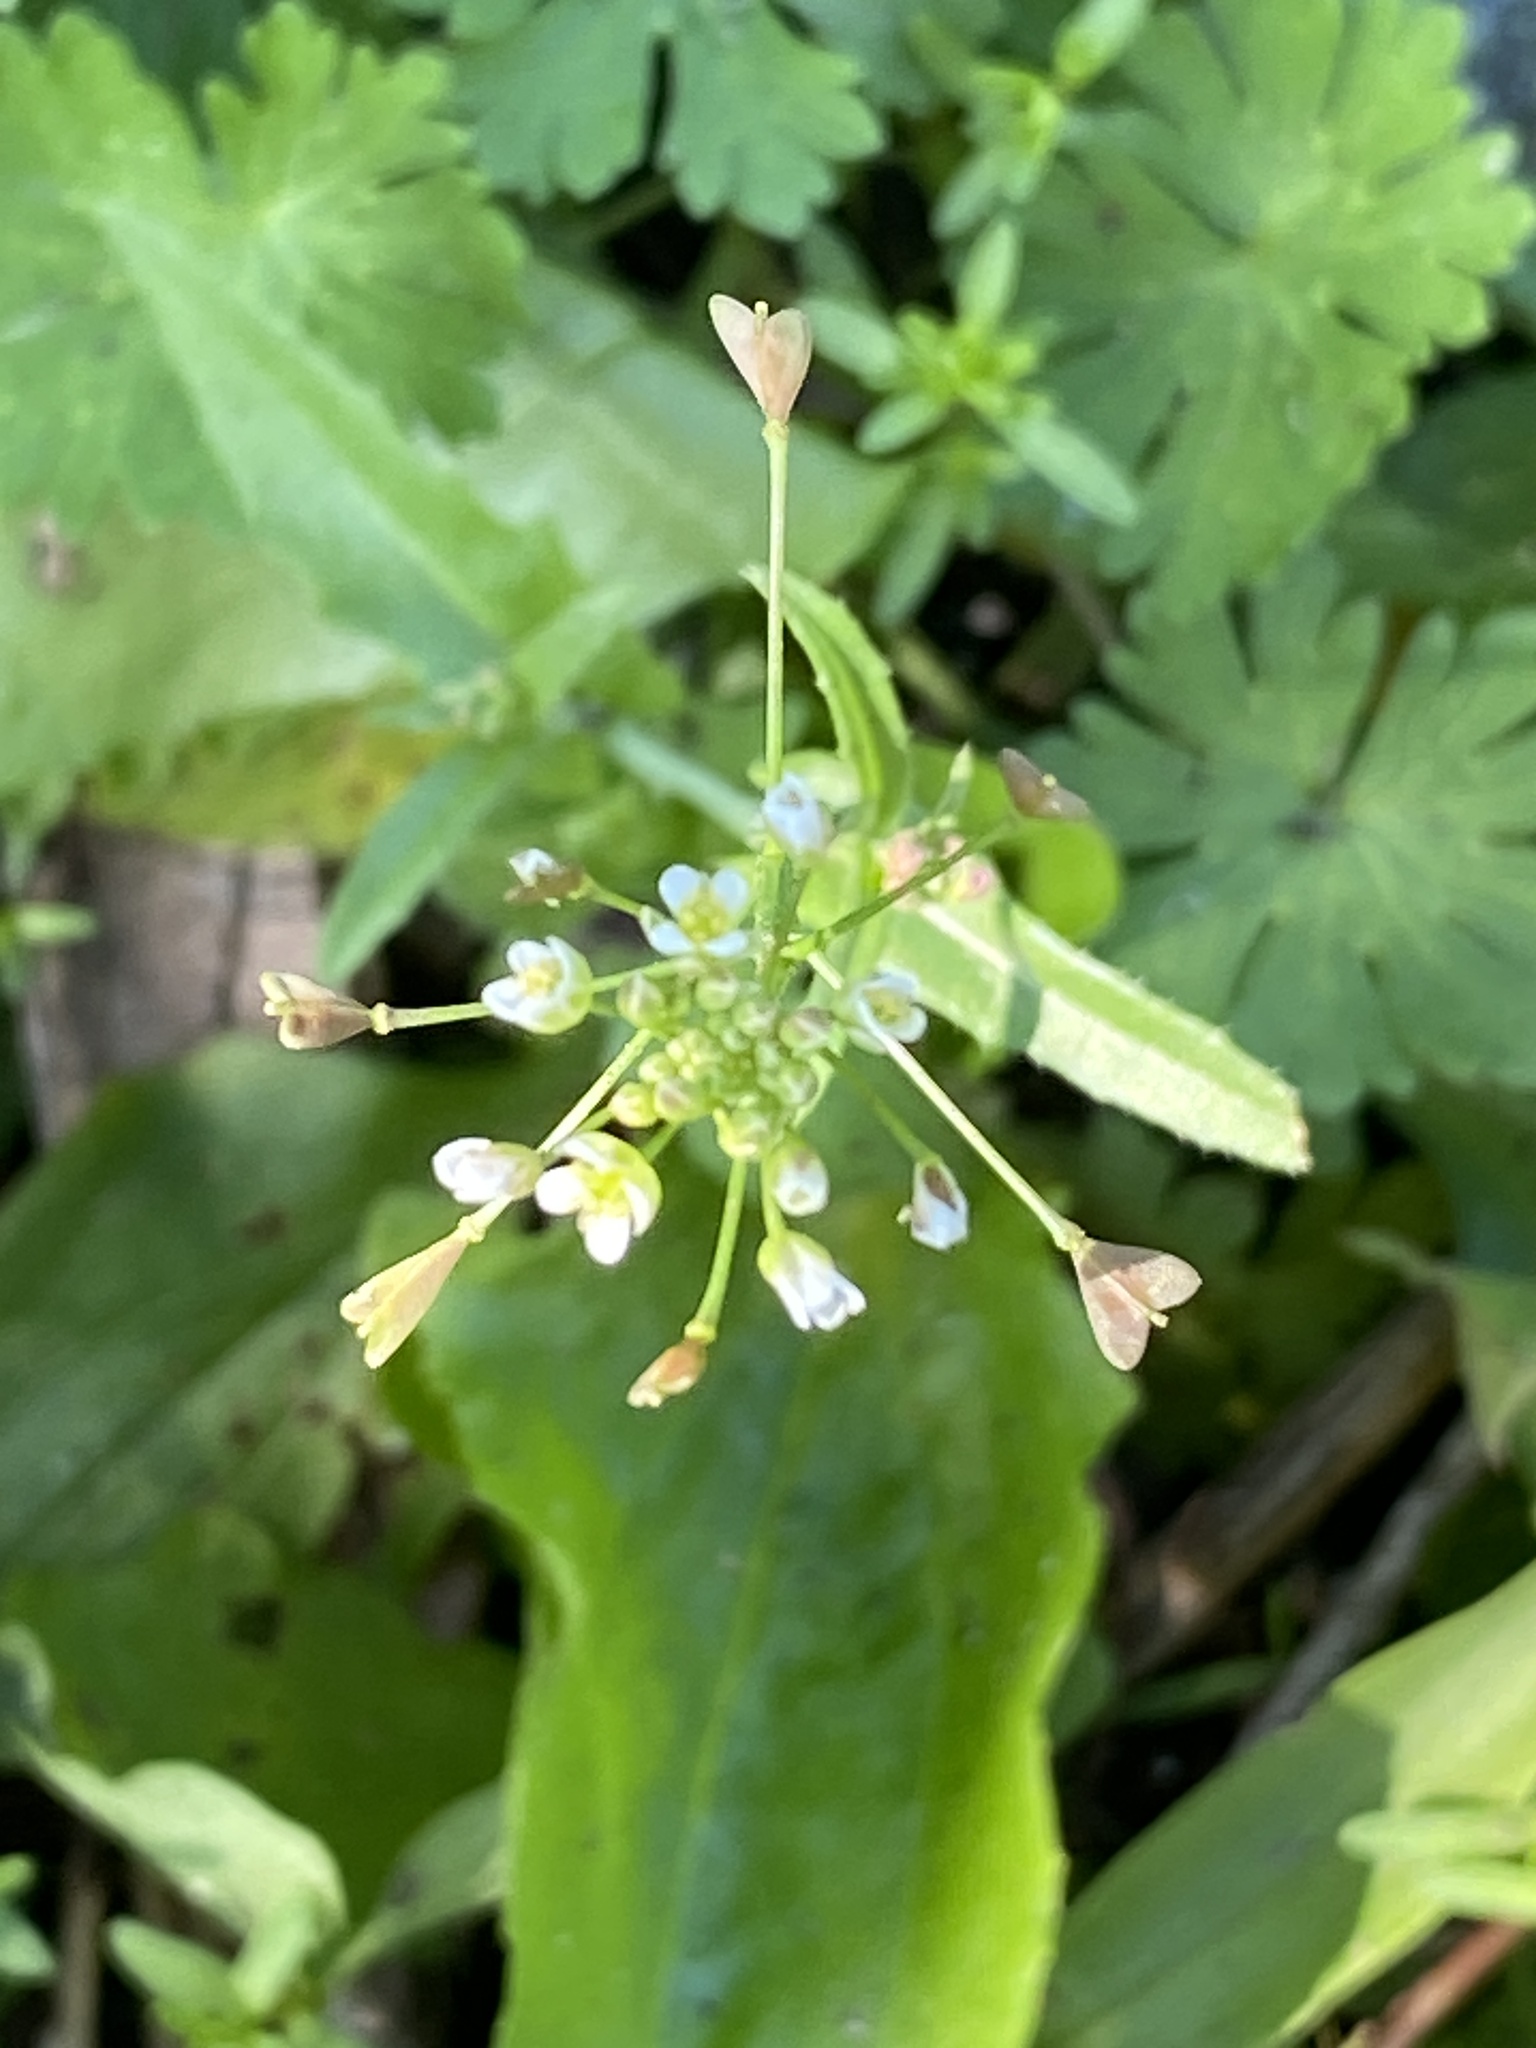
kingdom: Plantae
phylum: Tracheophyta
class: Magnoliopsida
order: Brassicales
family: Brassicaceae
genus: Capsella
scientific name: Capsella bursa-pastoris
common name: Shepherd's purse
